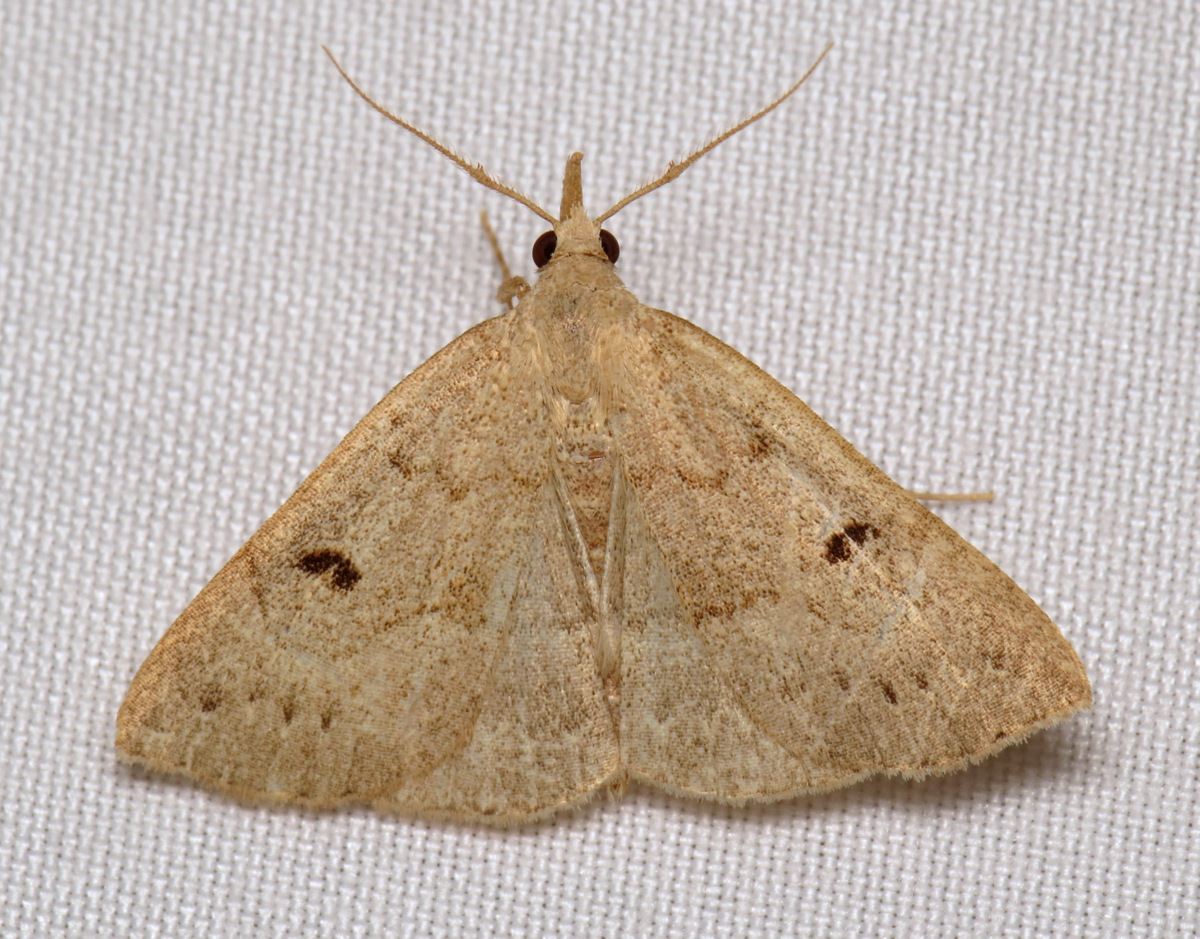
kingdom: Animalia
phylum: Arthropoda
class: Insecta
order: Lepidoptera
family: Erebidae
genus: Macrochilo
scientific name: Macrochilo morbidalis
